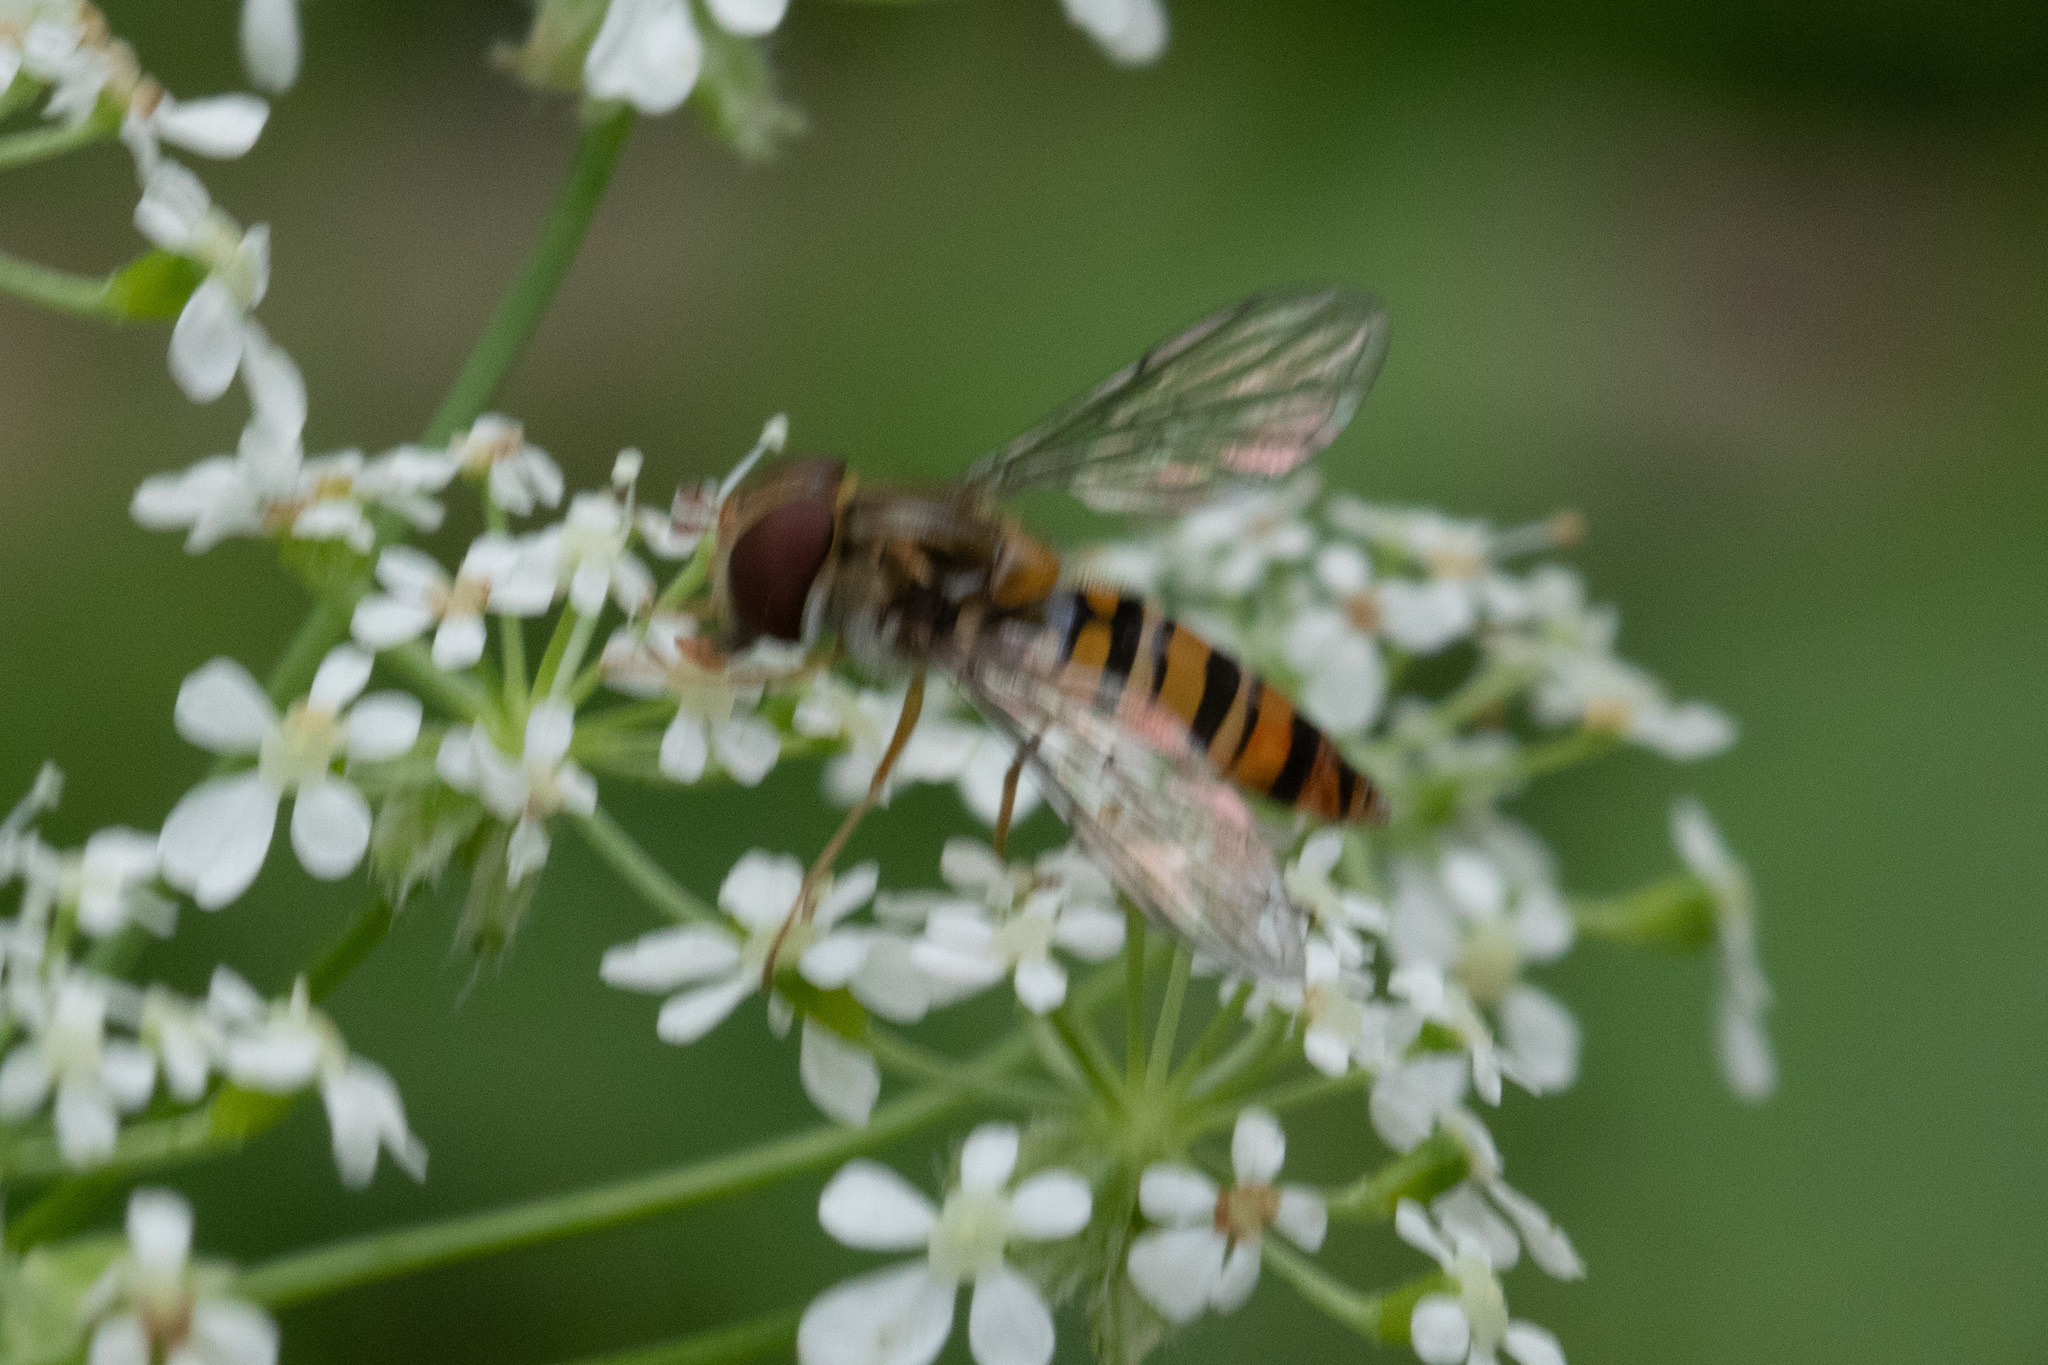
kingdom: Animalia
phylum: Arthropoda
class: Insecta
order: Diptera
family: Syrphidae
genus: Episyrphus
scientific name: Episyrphus balteatus
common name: Marmalade hoverfly
